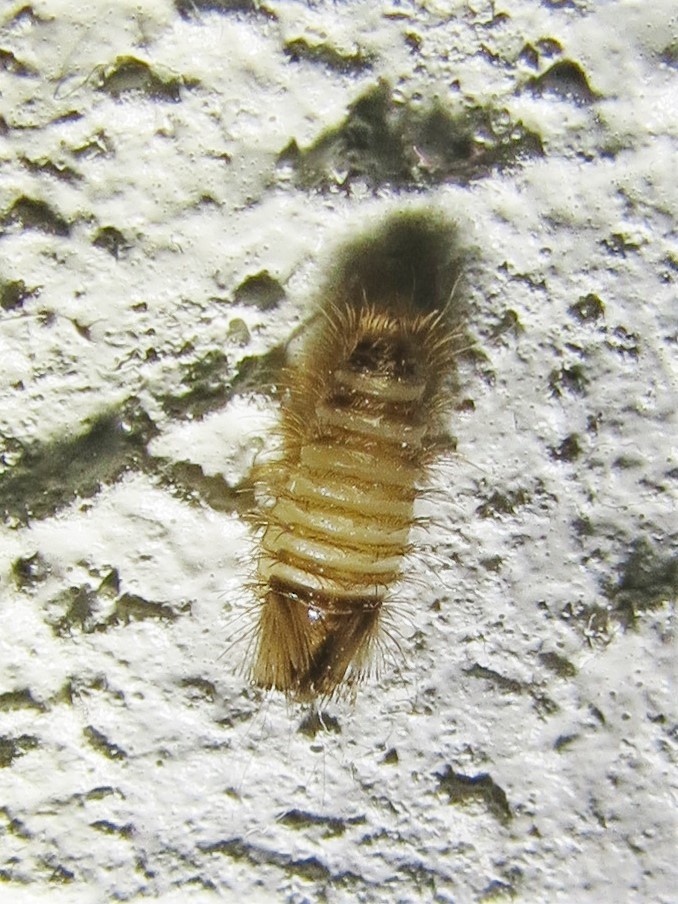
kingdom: Animalia
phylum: Arthropoda
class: Insecta
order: Coleoptera
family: Dermestidae
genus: Anthrenus
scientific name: Anthrenus verbasci
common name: Varied carpet beetle
